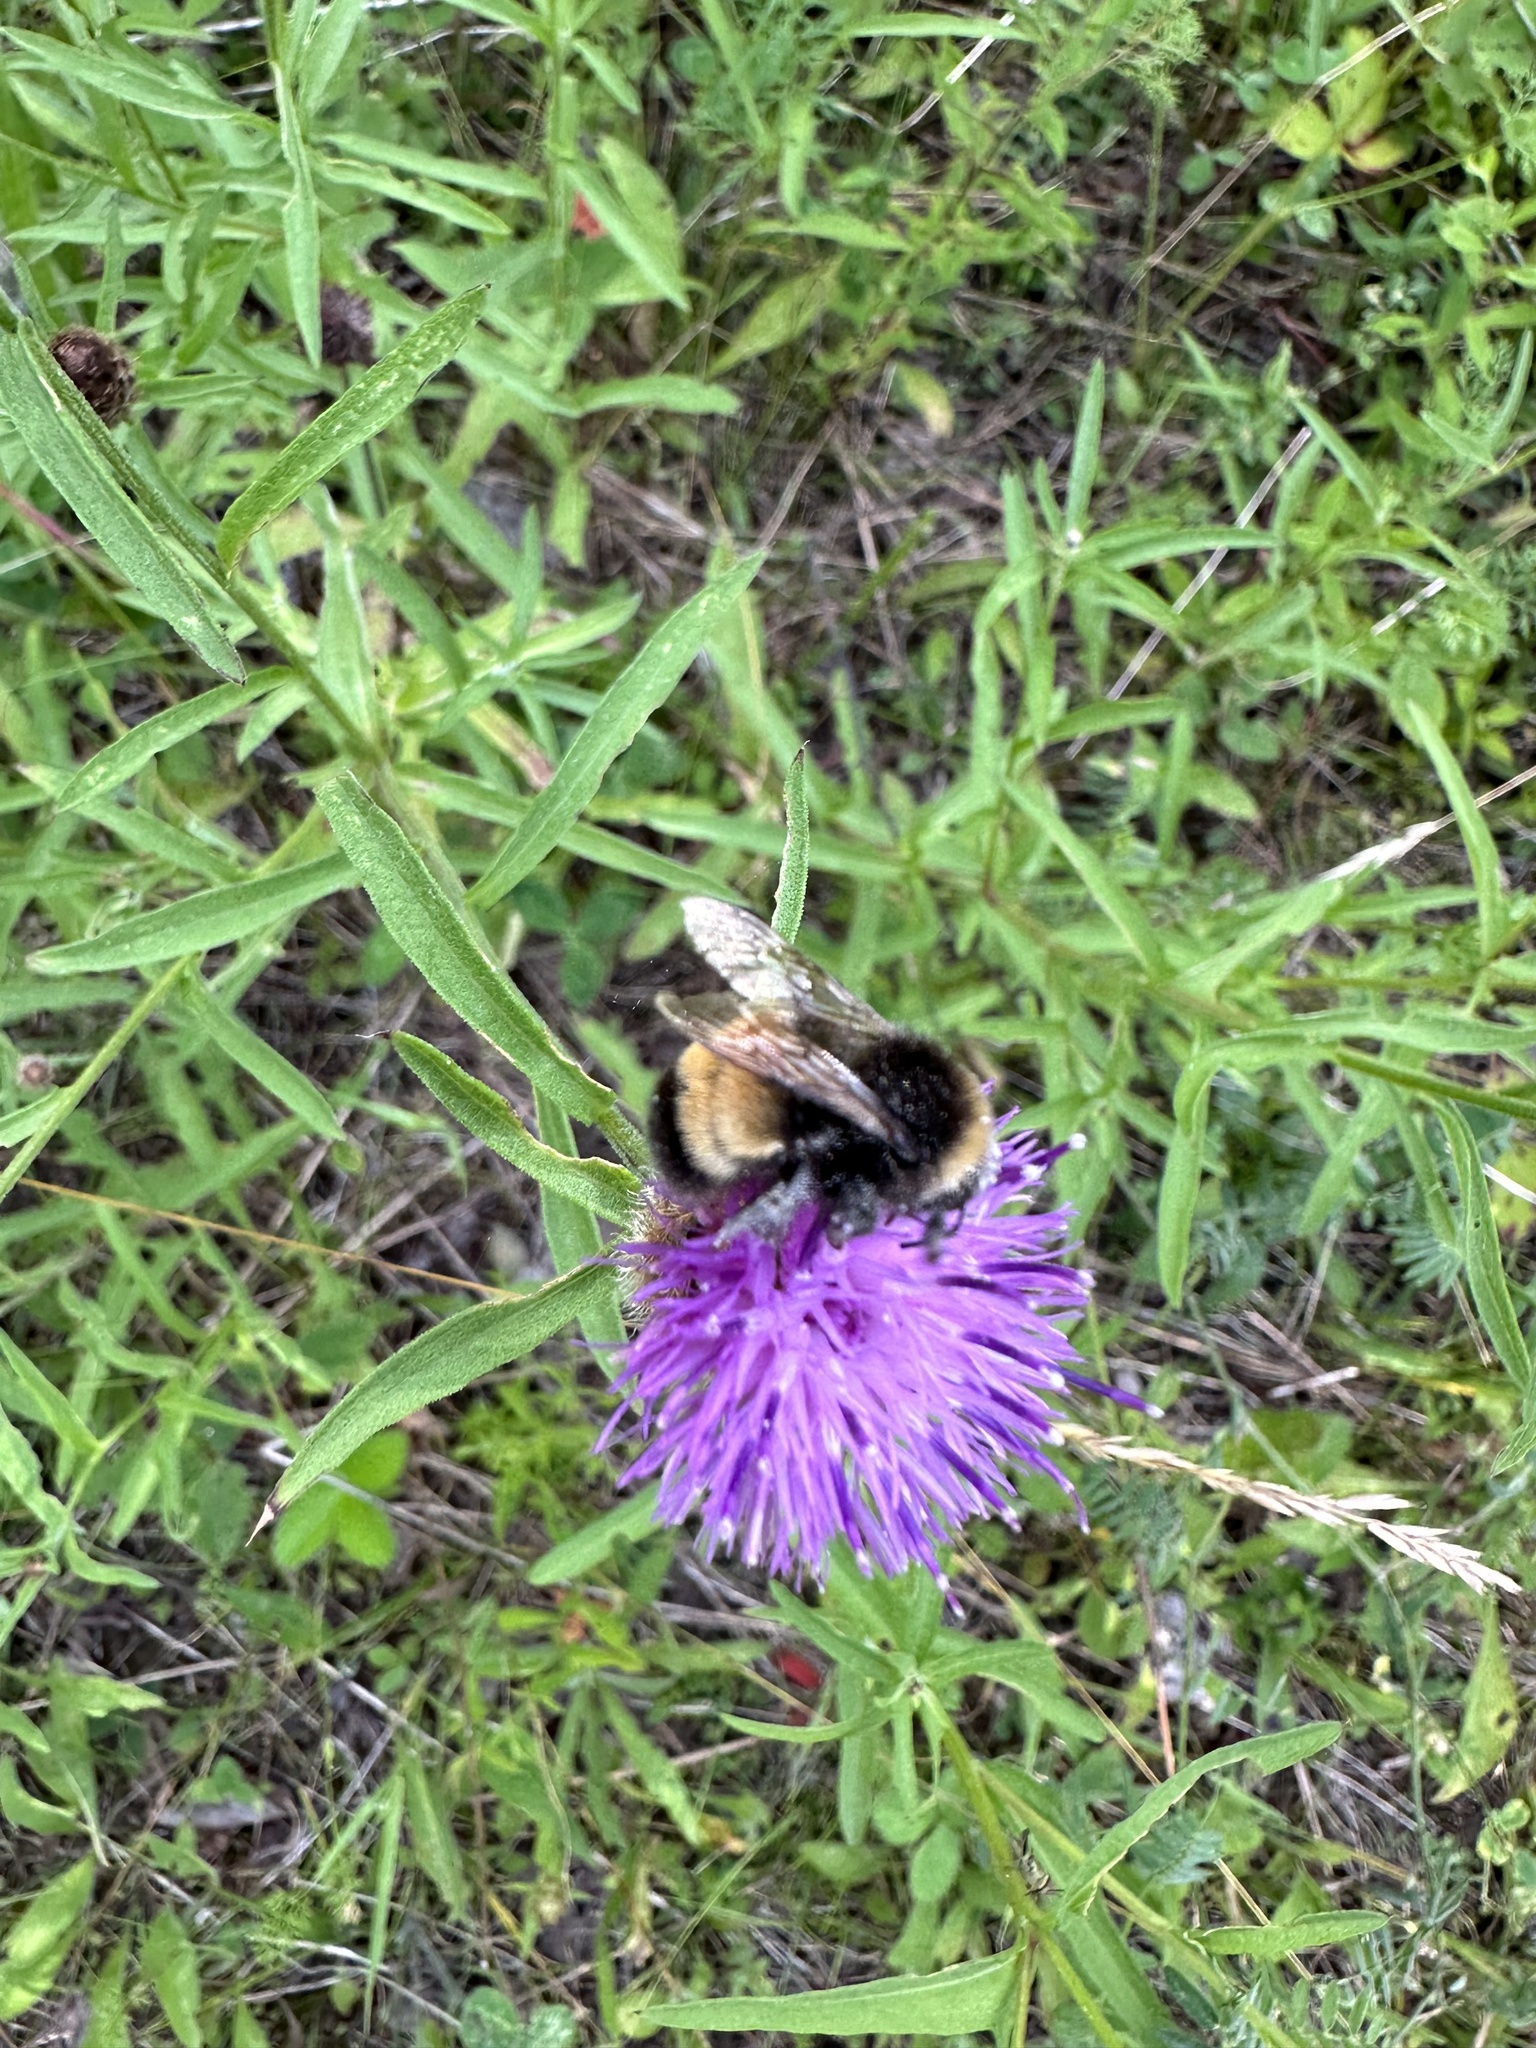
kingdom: Animalia
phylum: Arthropoda
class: Insecta
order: Hymenoptera
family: Apidae
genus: Bombus
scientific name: Bombus terricola
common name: Yellow-banded bumble bee
